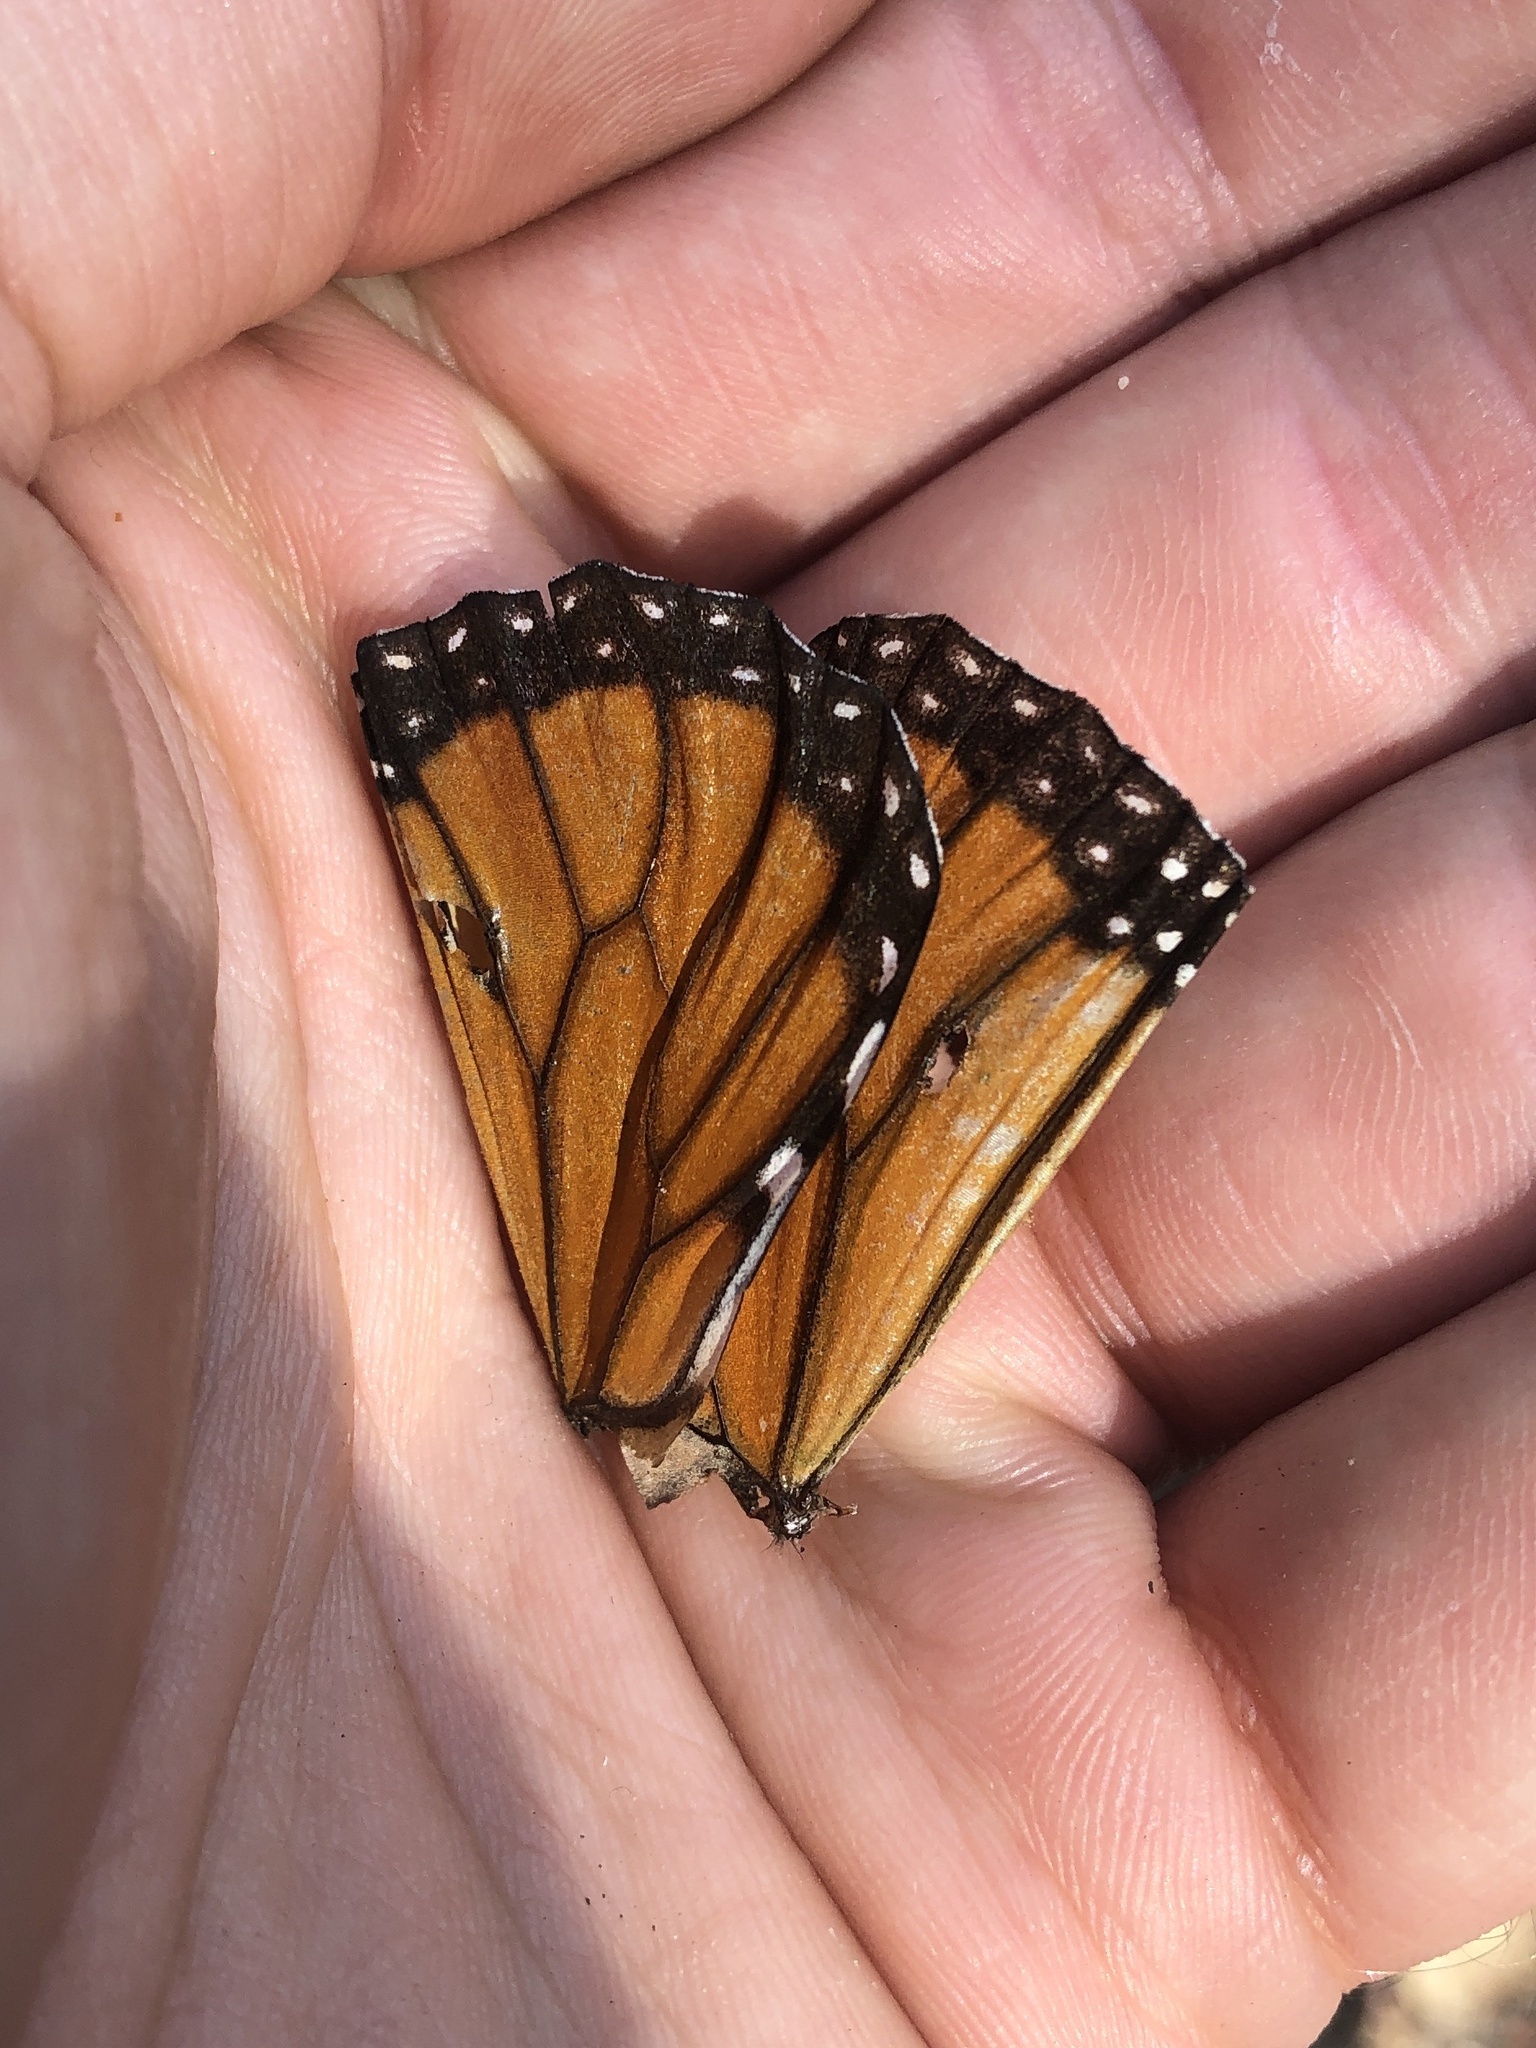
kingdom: Animalia
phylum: Arthropoda
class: Insecta
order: Lepidoptera
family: Nymphalidae
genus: Danaus
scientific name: Danaus plexippus
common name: Monarch
